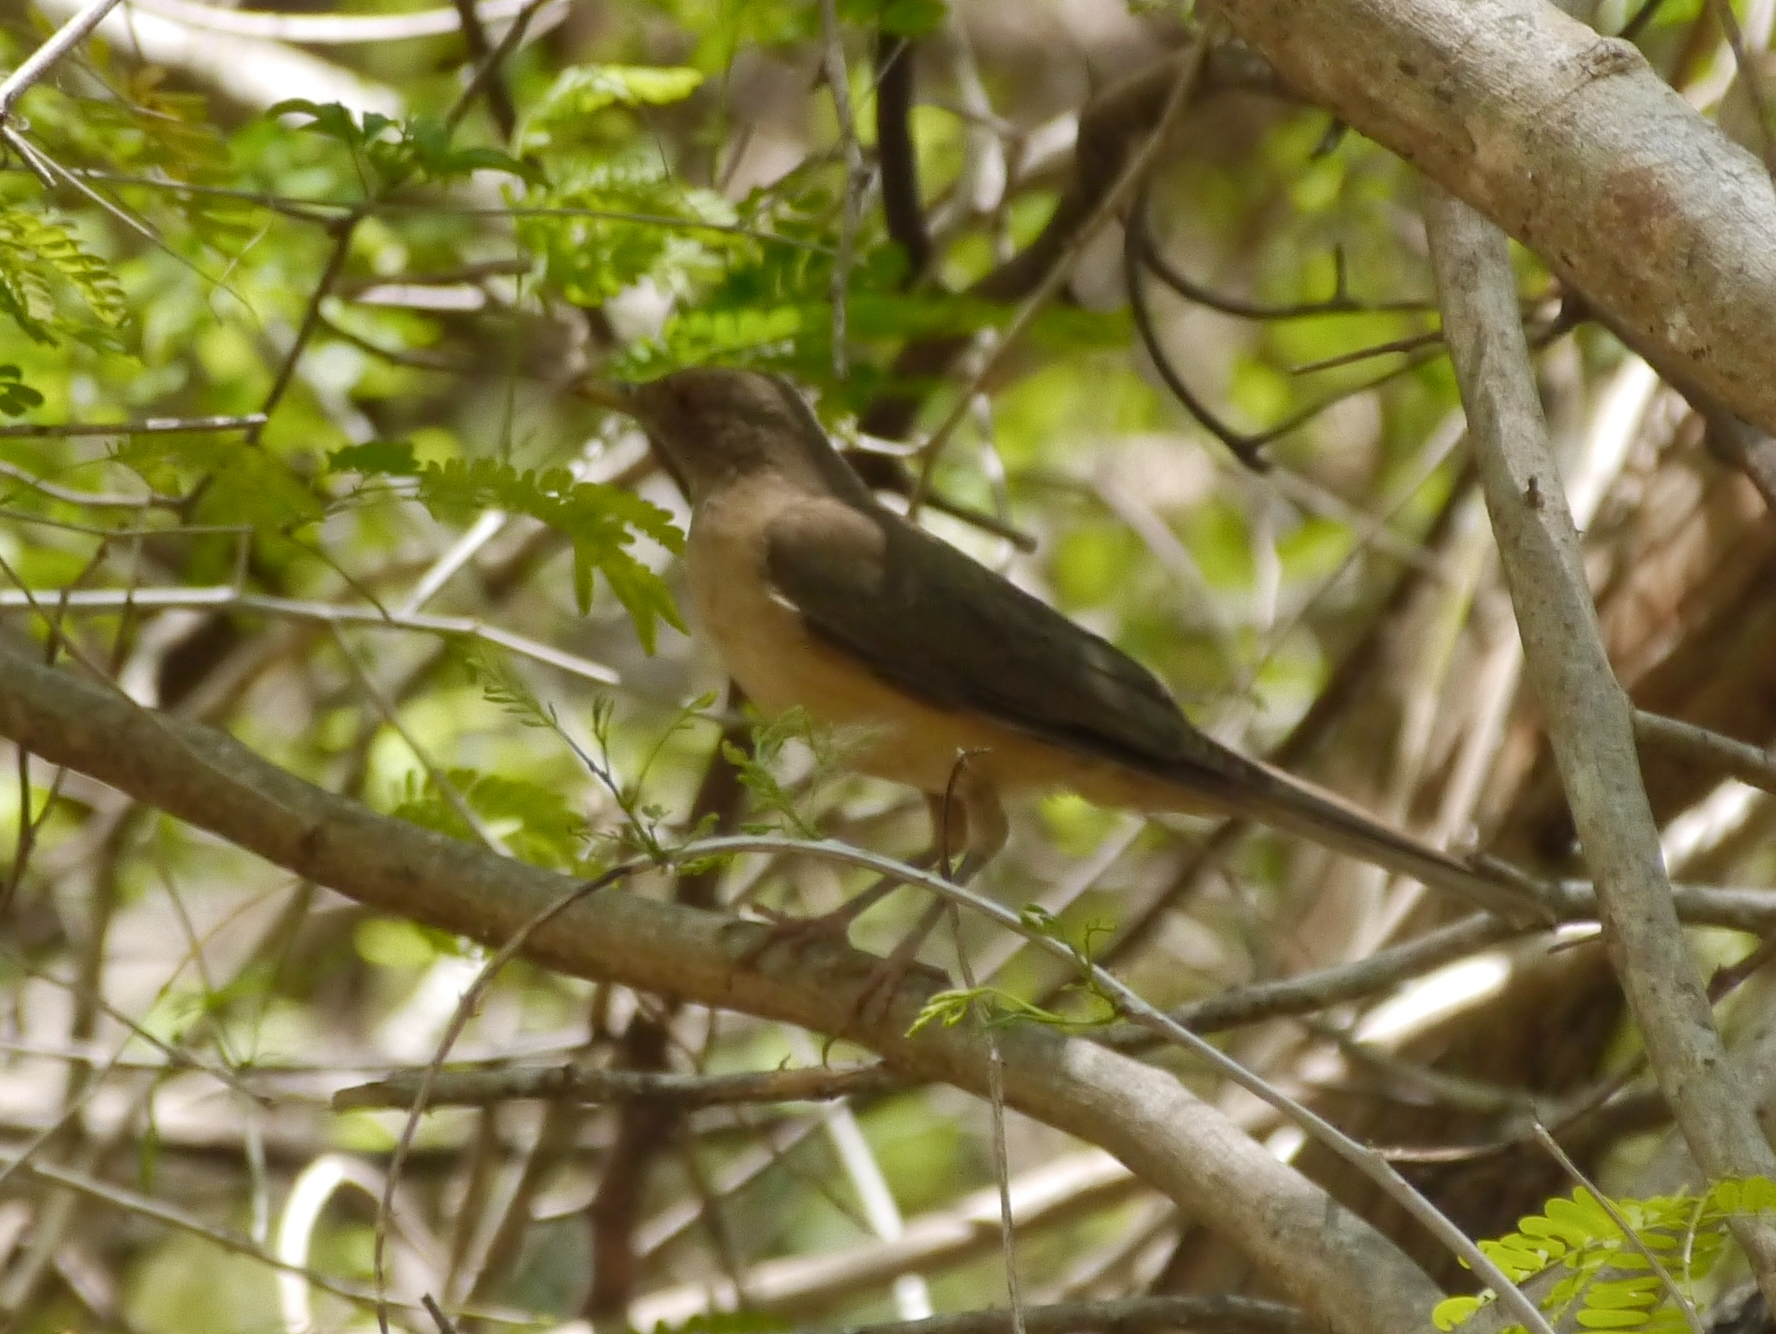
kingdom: Animalia
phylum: Chordata
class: Aves
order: Passeriformes
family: Turdidae
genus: Turdus
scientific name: Turdus grayi
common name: Clay-colored thrush
